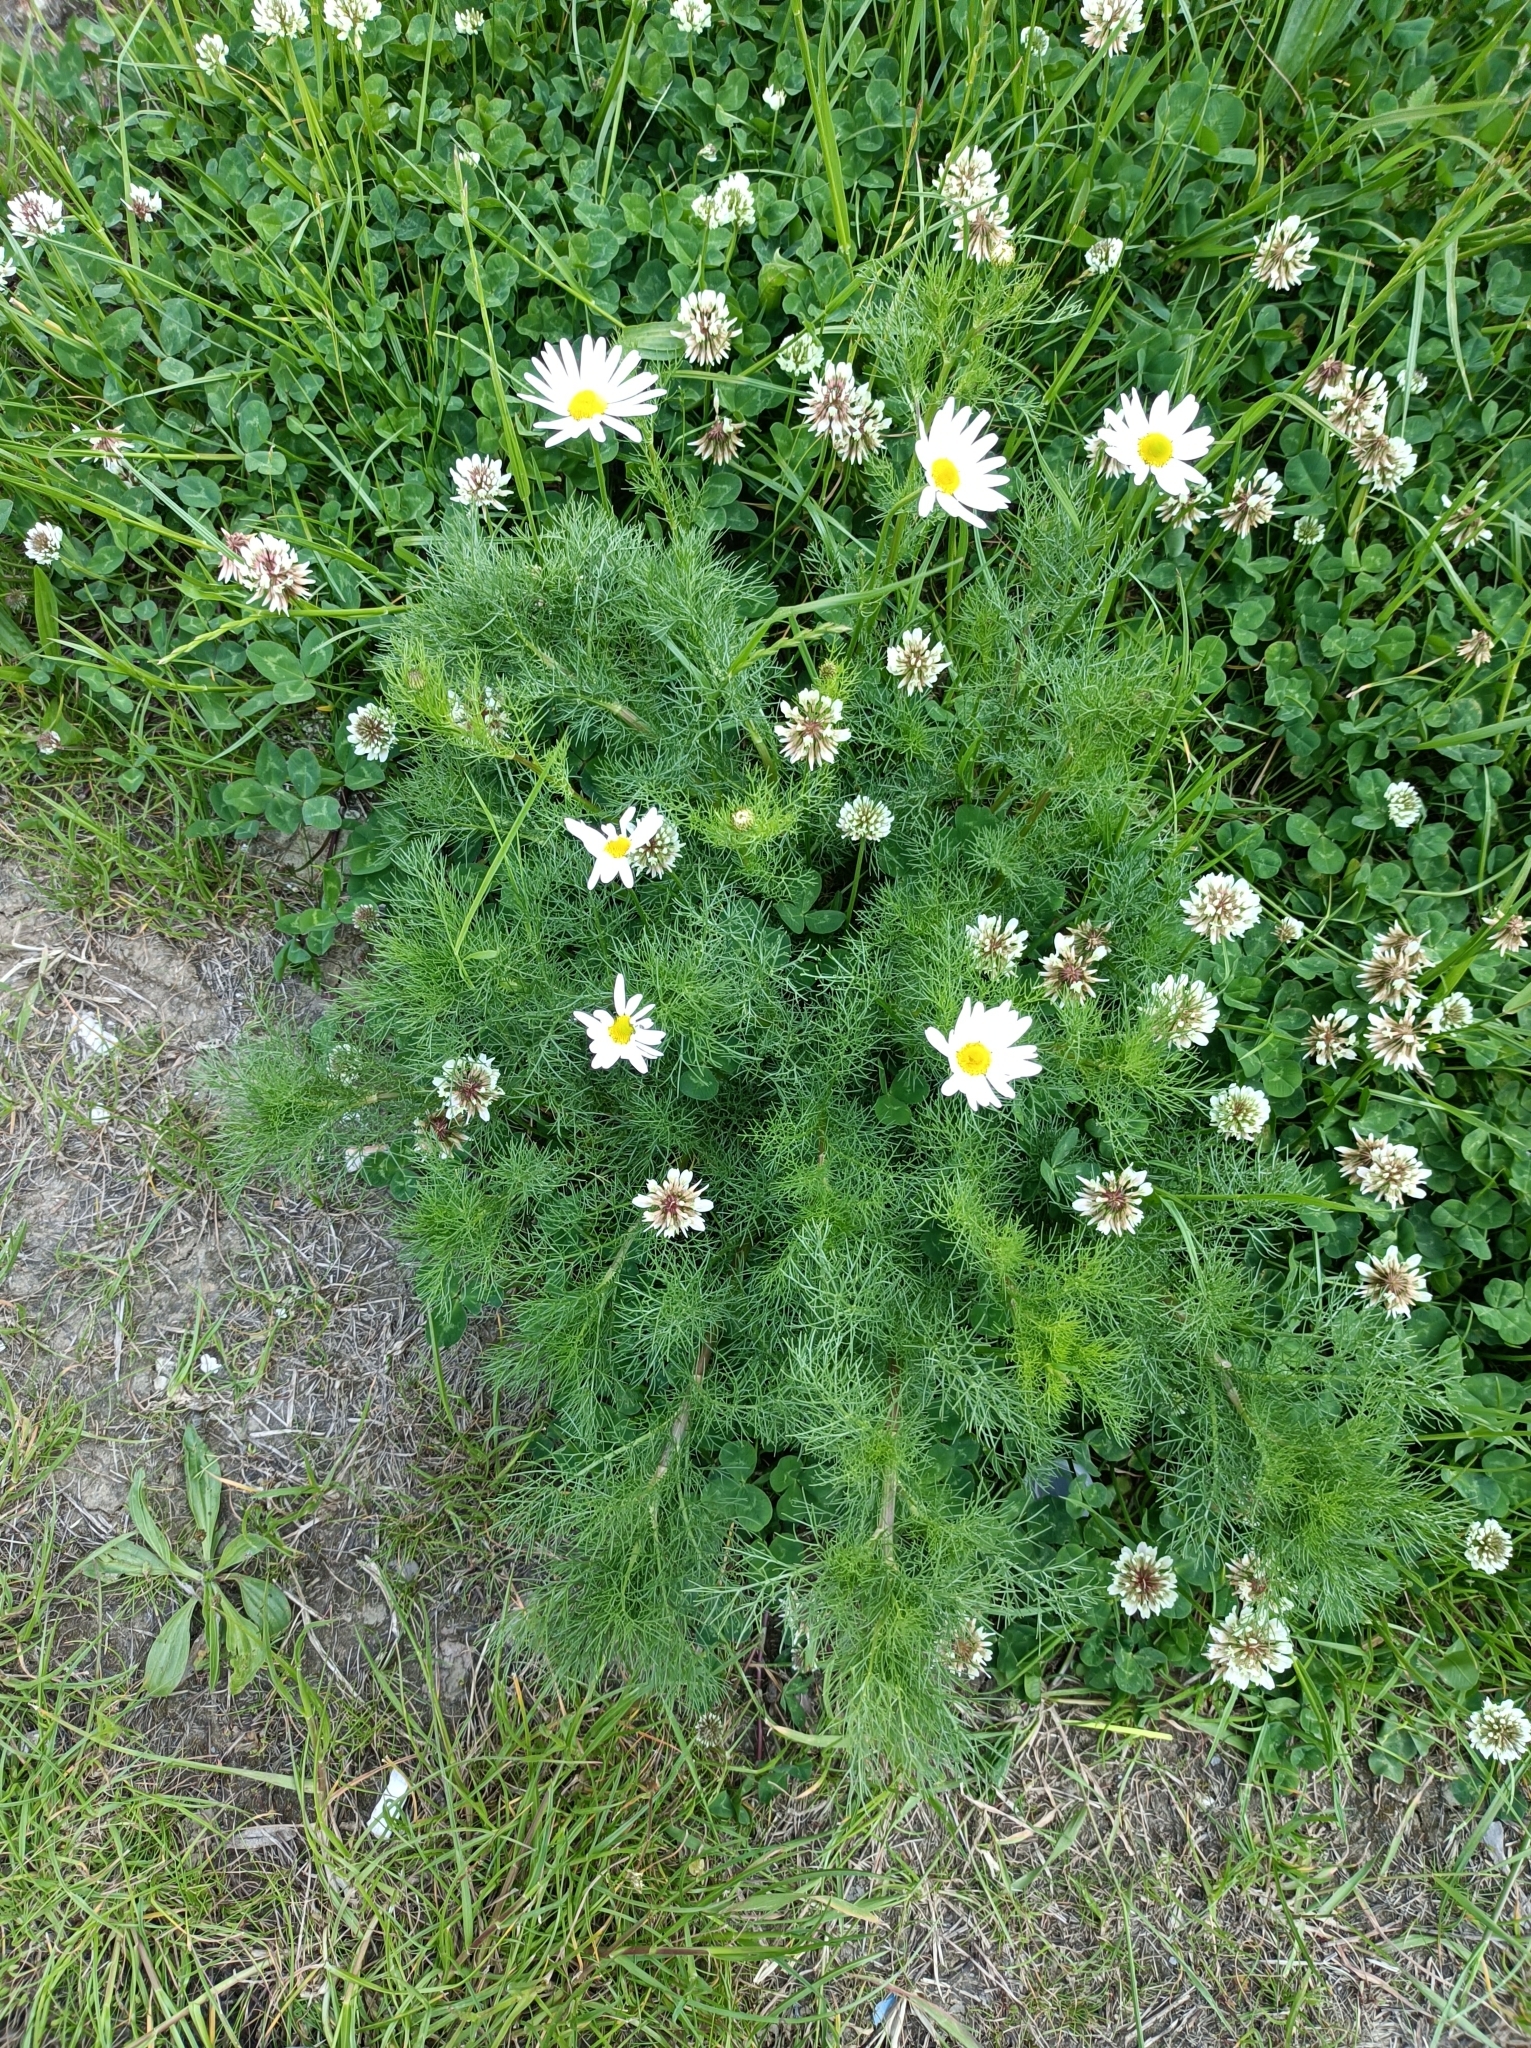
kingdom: Plantae
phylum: Tracheophyta
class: Magnoliopsida
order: Asterales
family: Asteraceae
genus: Tripleurospermum
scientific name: Tripleurospermum inodorum
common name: Scentless mayweed
